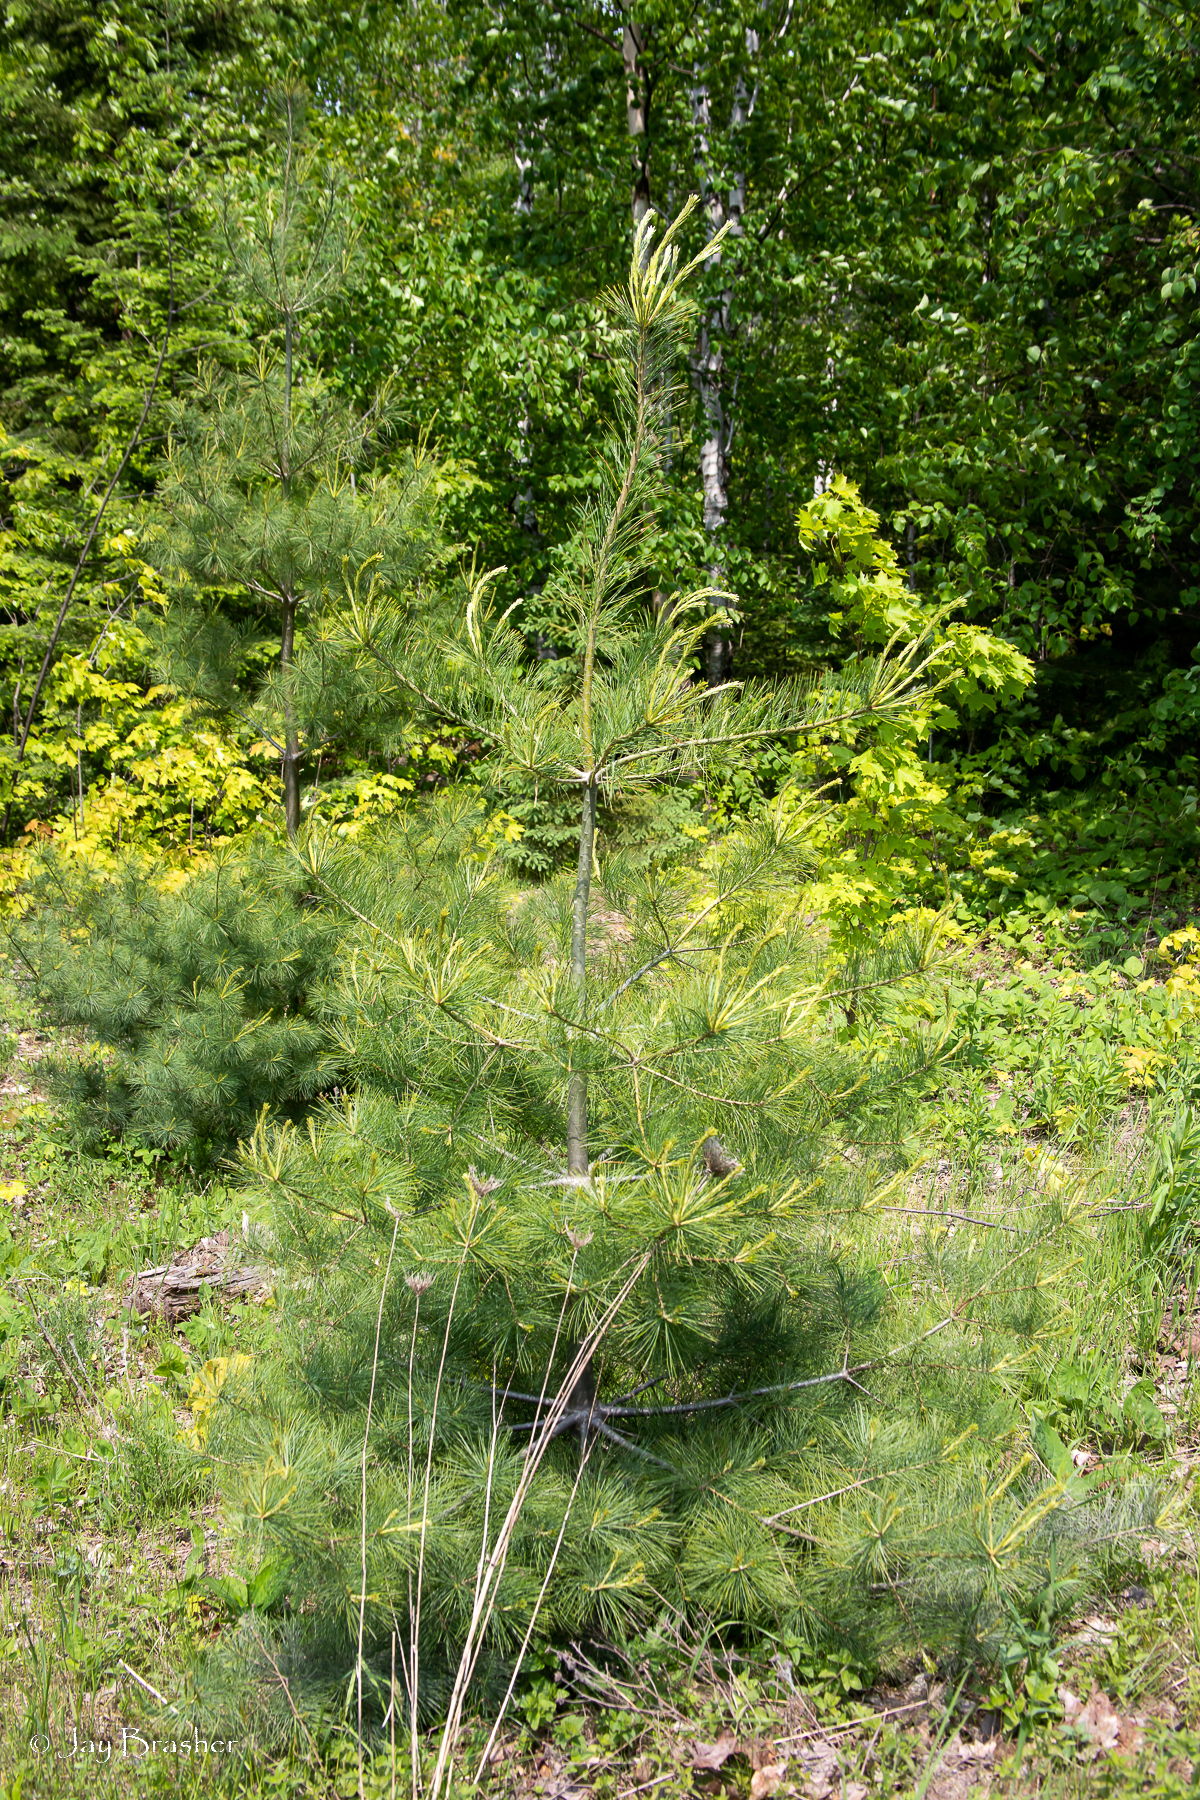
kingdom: Plantae
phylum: Tracheophyta
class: Pinopsida
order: Pinales
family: Pinaceae
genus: Pinus
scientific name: Pinus strobus
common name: Weymouth pine
